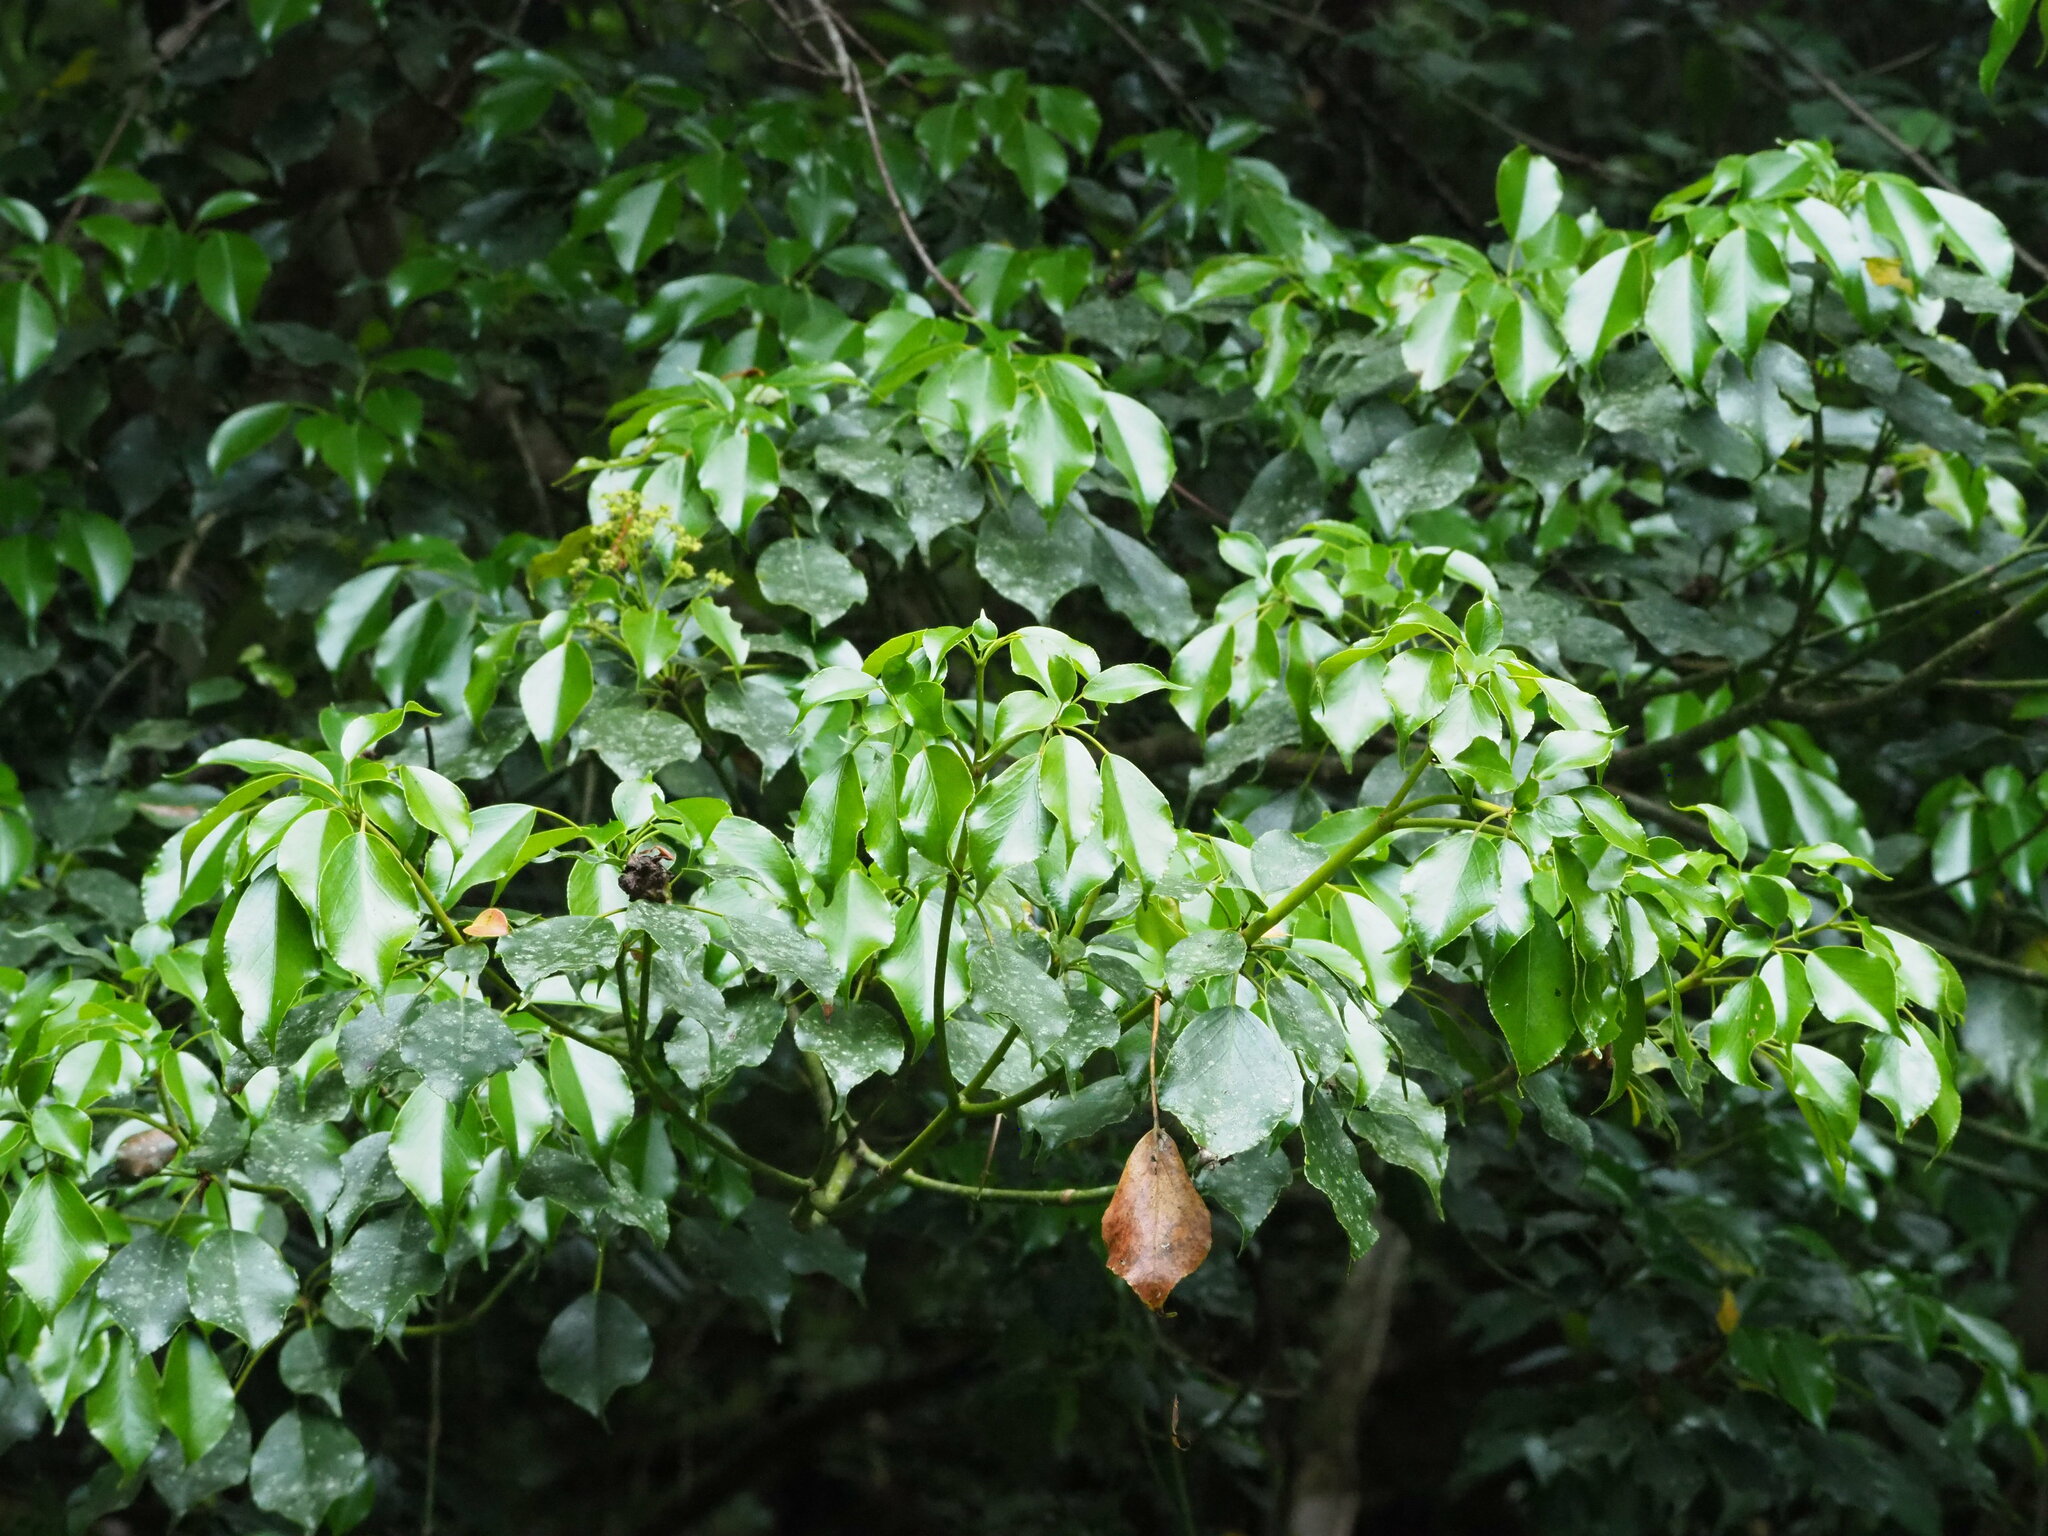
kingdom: Plantae
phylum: Tracheophyta
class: Magnoliopsida
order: Trochodendrales
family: Trochodendraceae
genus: Trochodendron
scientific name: Trochodendron aralioides
